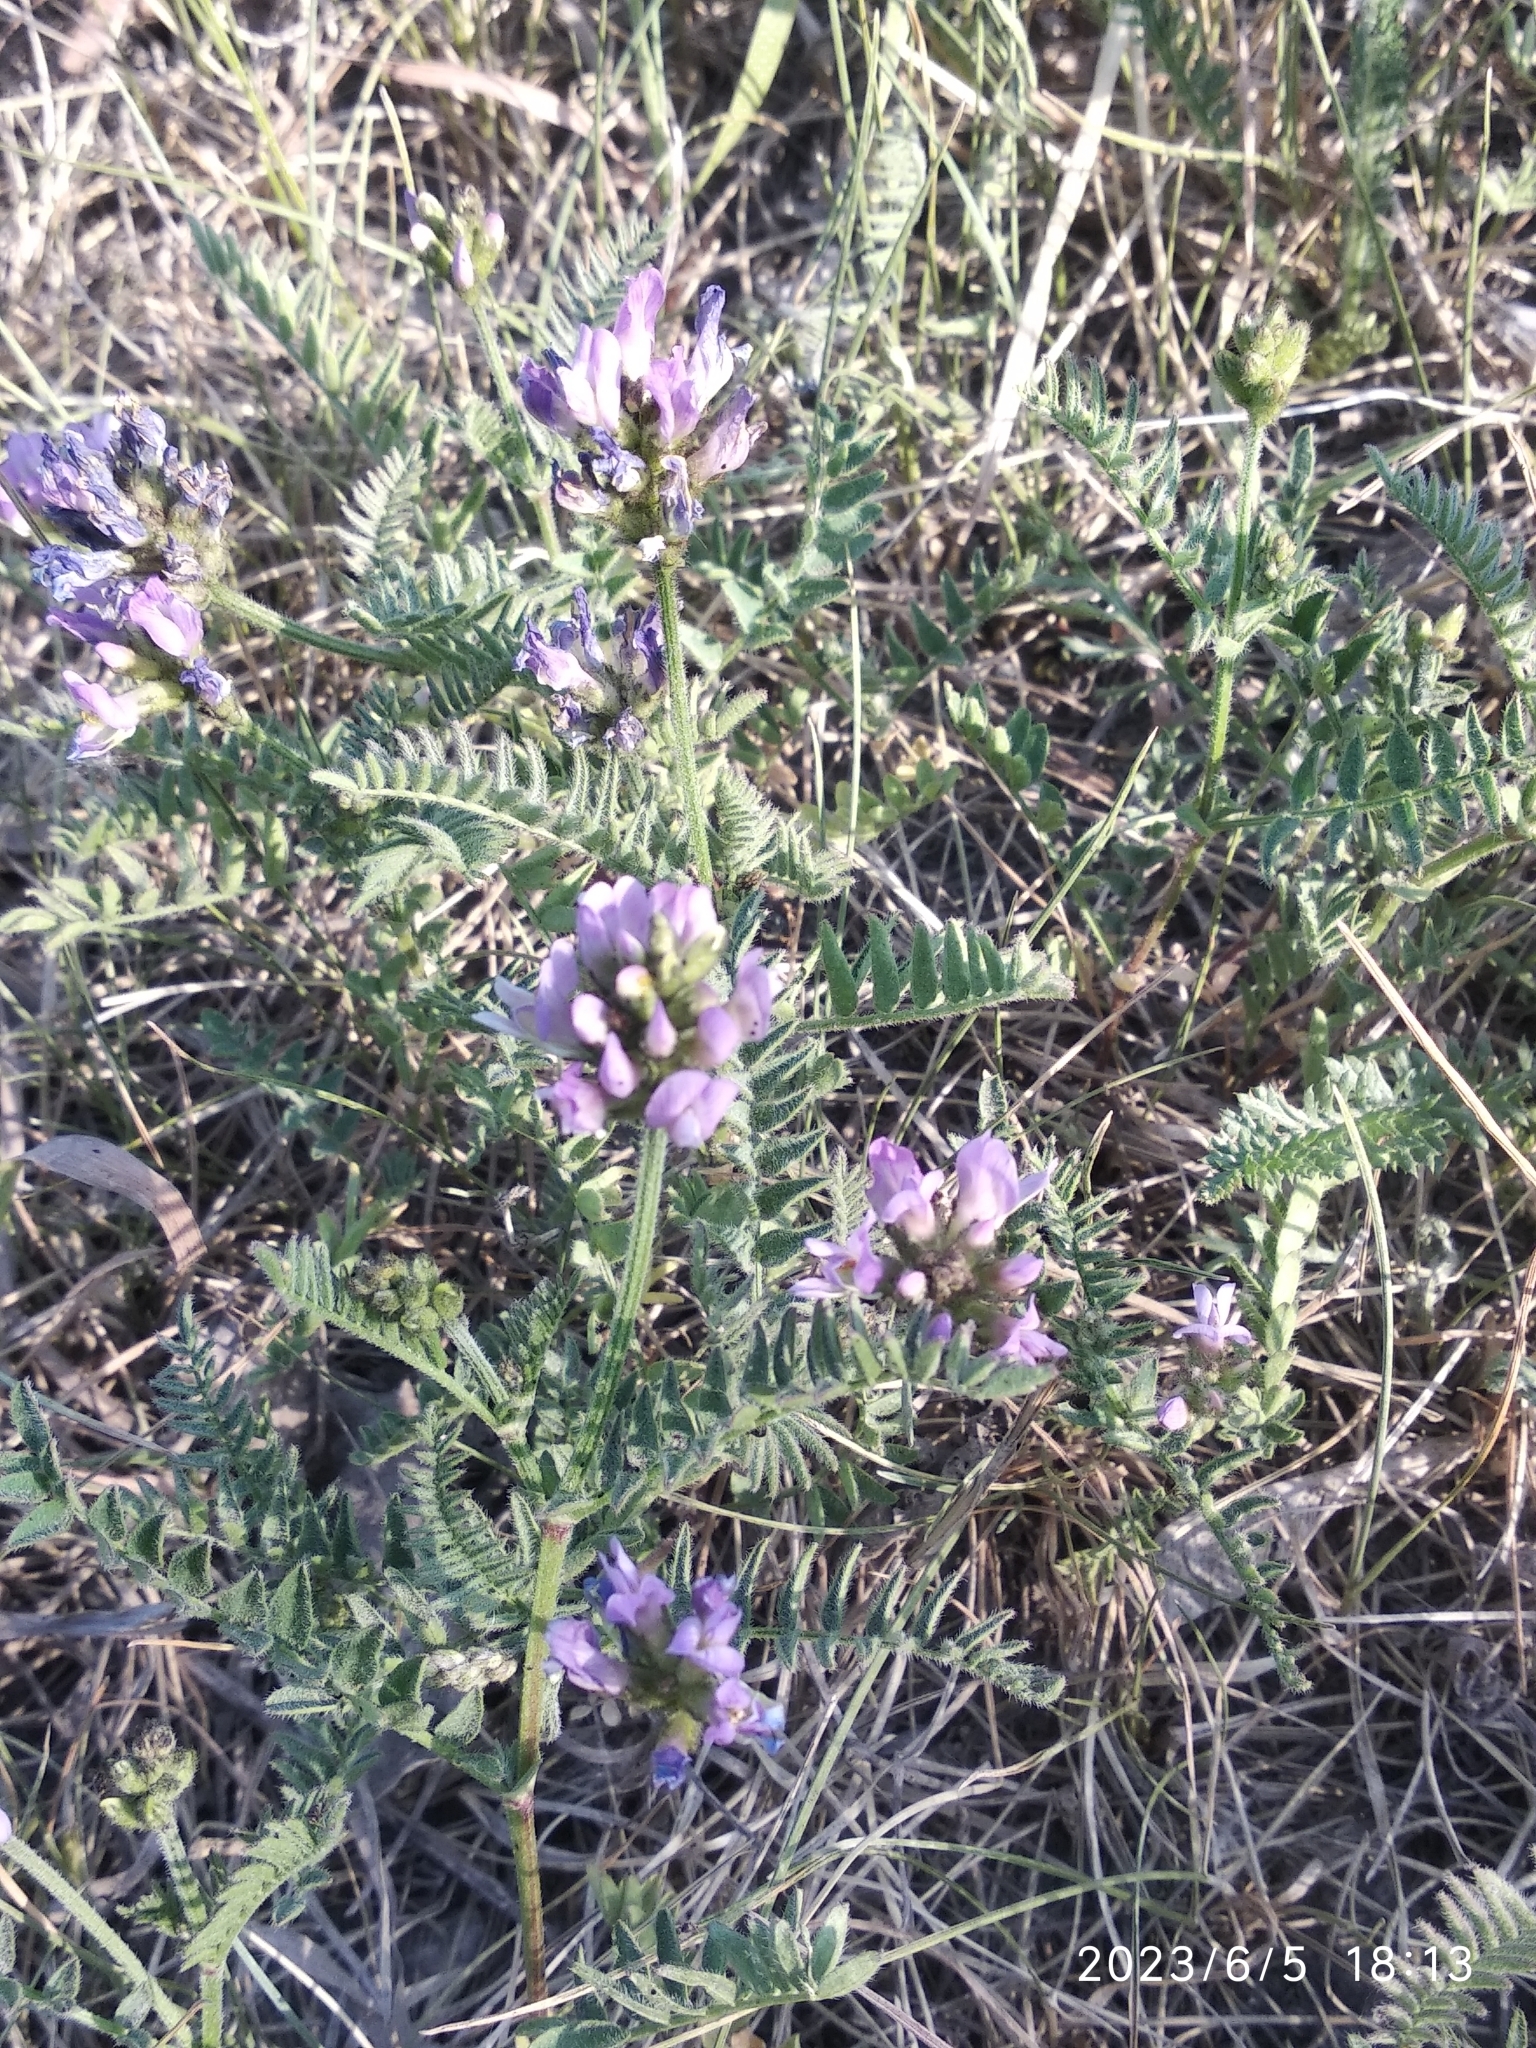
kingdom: Plantae
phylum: Tracheophyta
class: Magnoliopsida
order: Fabales
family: Fabaceae
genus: Astragalus
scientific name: Astragalus danicus
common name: Purple milk-vetch
